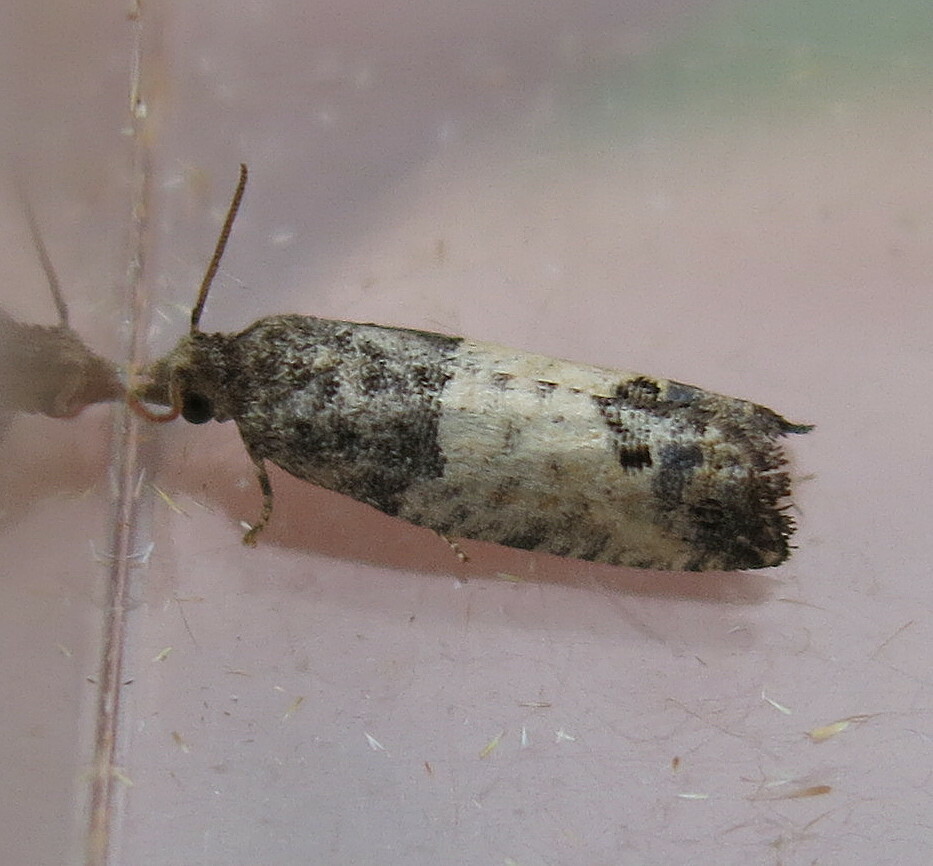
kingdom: Animalia
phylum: Arthropoda
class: Insecta
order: Lepidoptera
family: Tortricidae
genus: Spilonota
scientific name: Spilonota ocellana
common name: Bud moth
